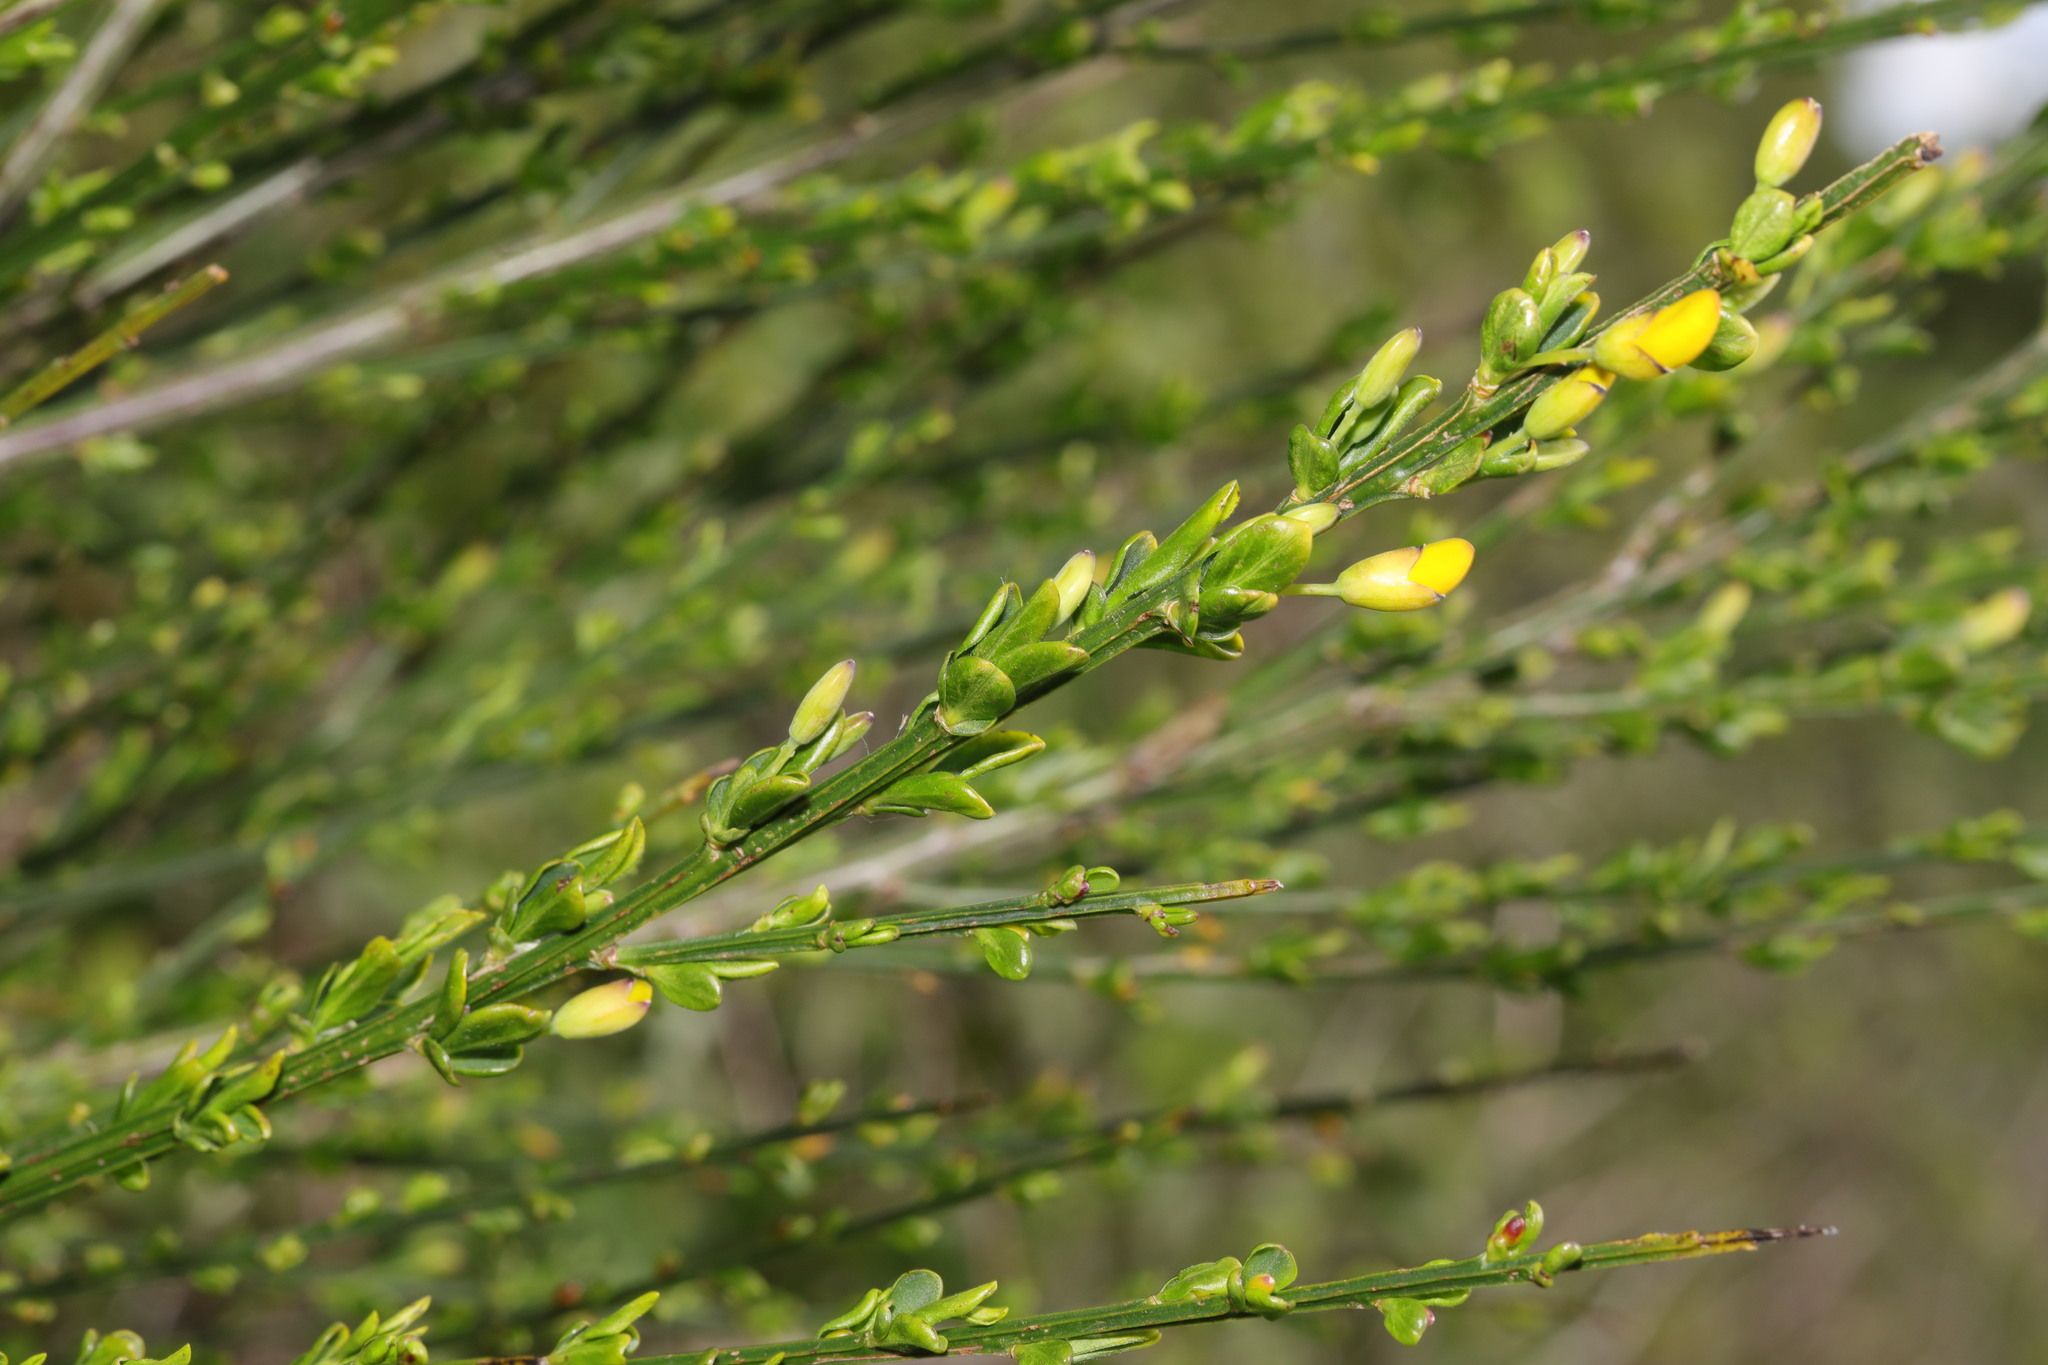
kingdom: Plantae
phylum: Tracheophyta
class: Magnoliopsida
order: Fabales
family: Fabaceae
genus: Cytisus
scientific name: Cytisus scoparius
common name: Scotch broom
